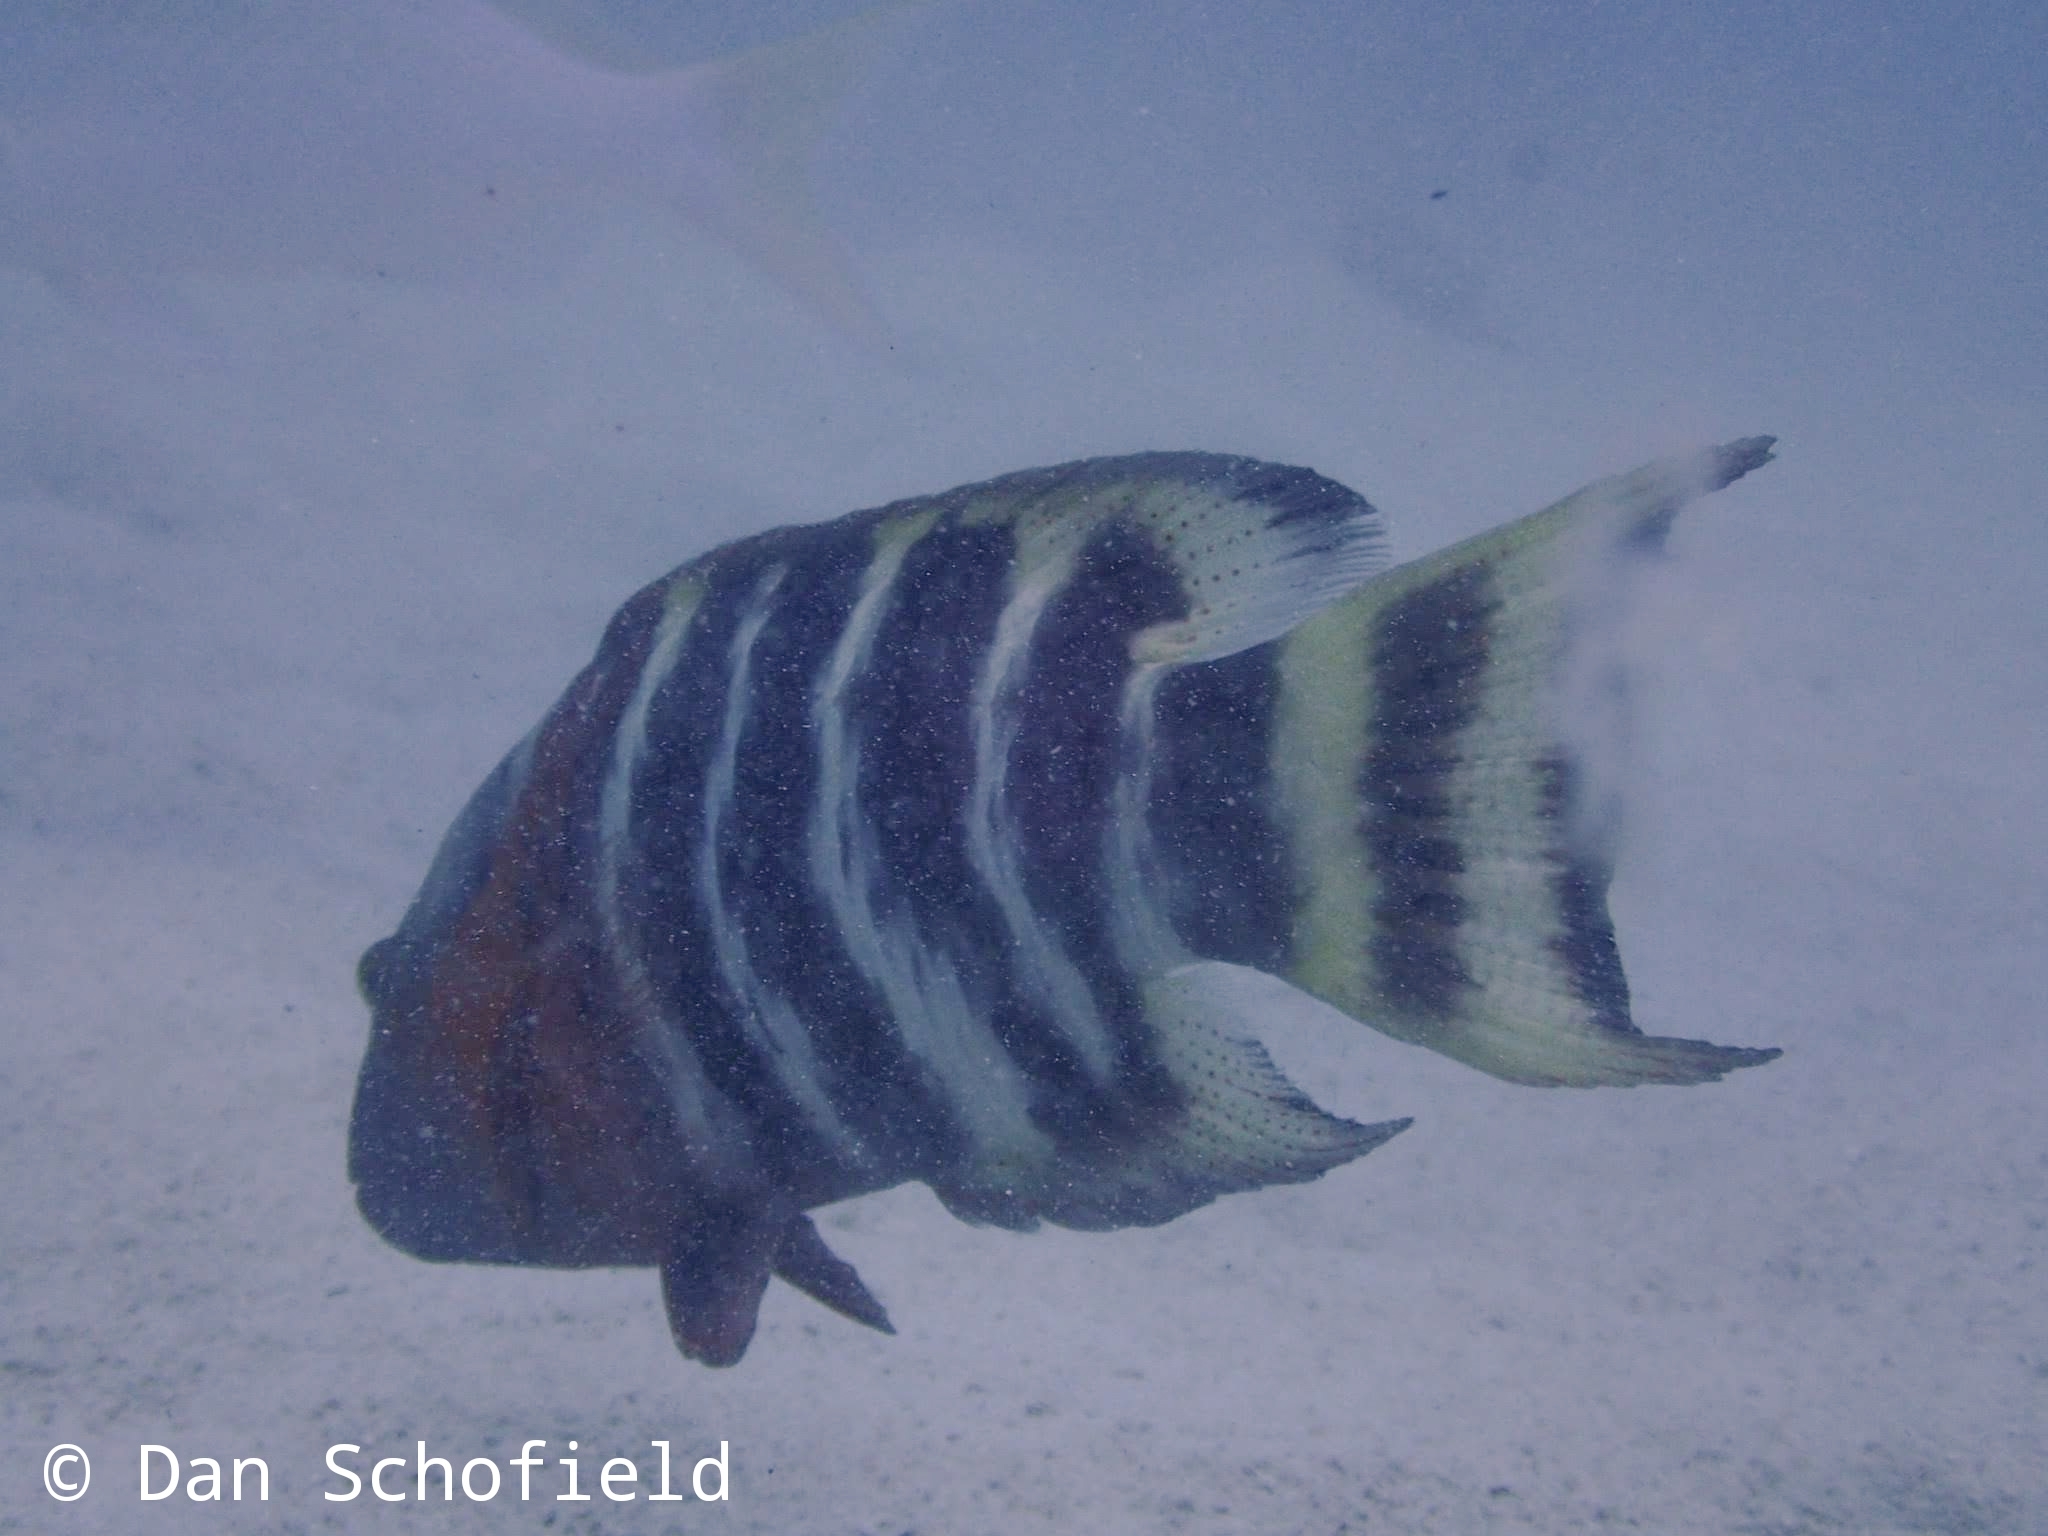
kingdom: Animalia
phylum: Chordata
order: Perciformes
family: Labridae
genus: Cheilinus
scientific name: Cheilinus fasciatus
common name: Red-breasted wrasse
